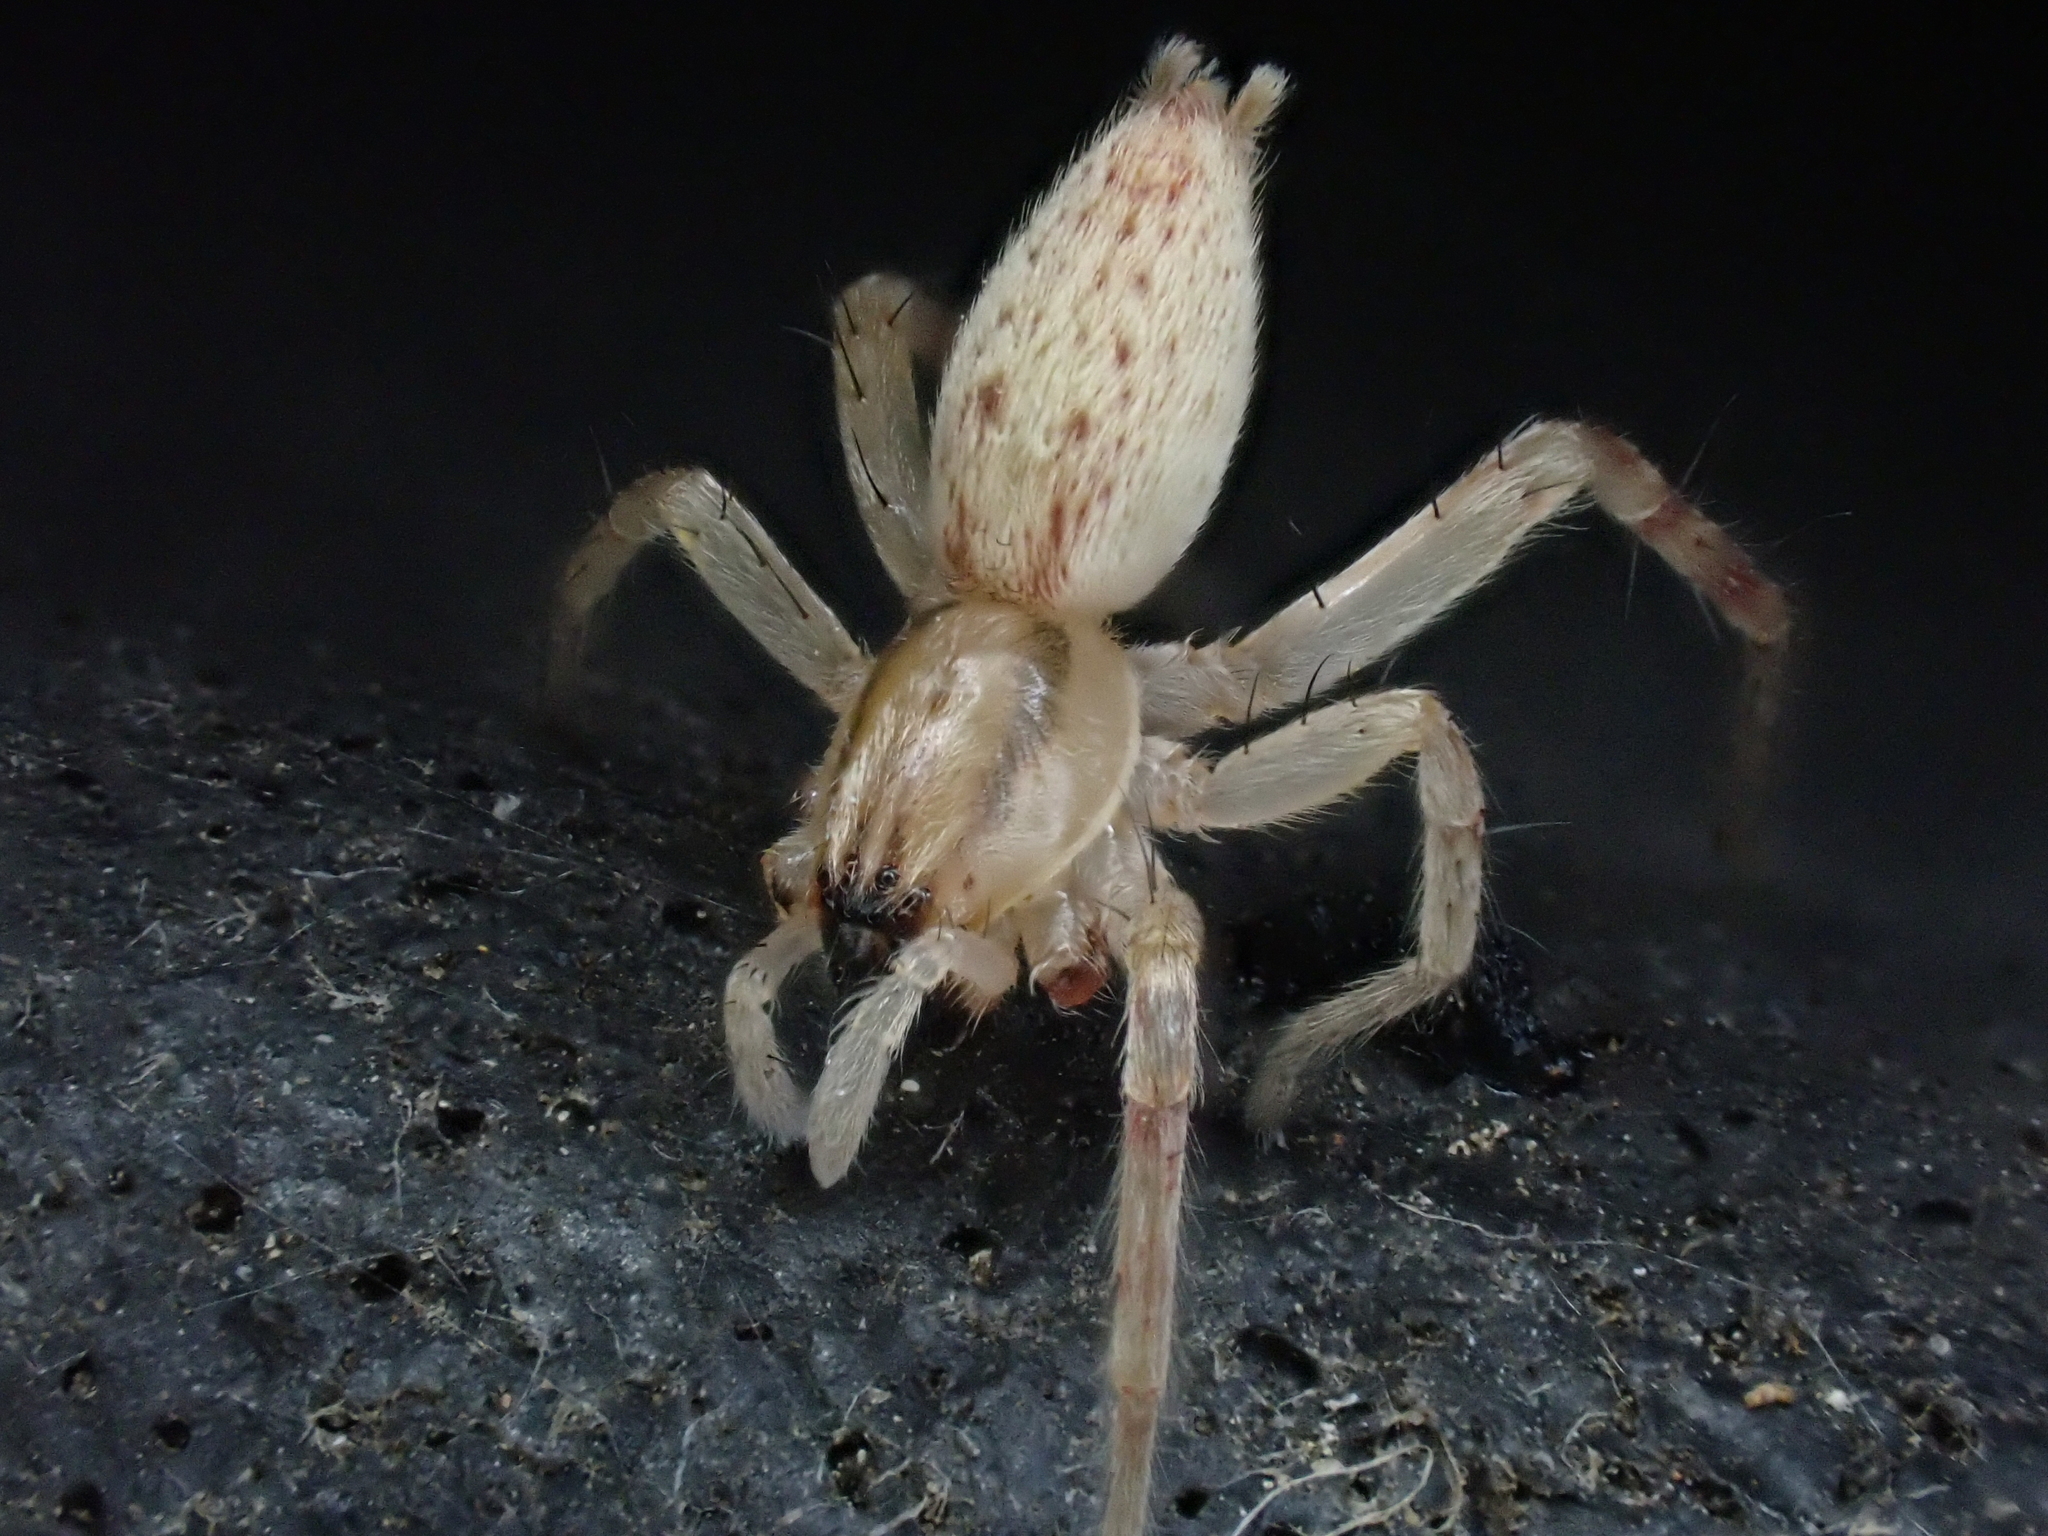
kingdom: Animalia
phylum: Arthropoda
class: Arachnida
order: Araneae
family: Anyphaenidae
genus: Hibana
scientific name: Hibana gracilis
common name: Garden ghost spider
